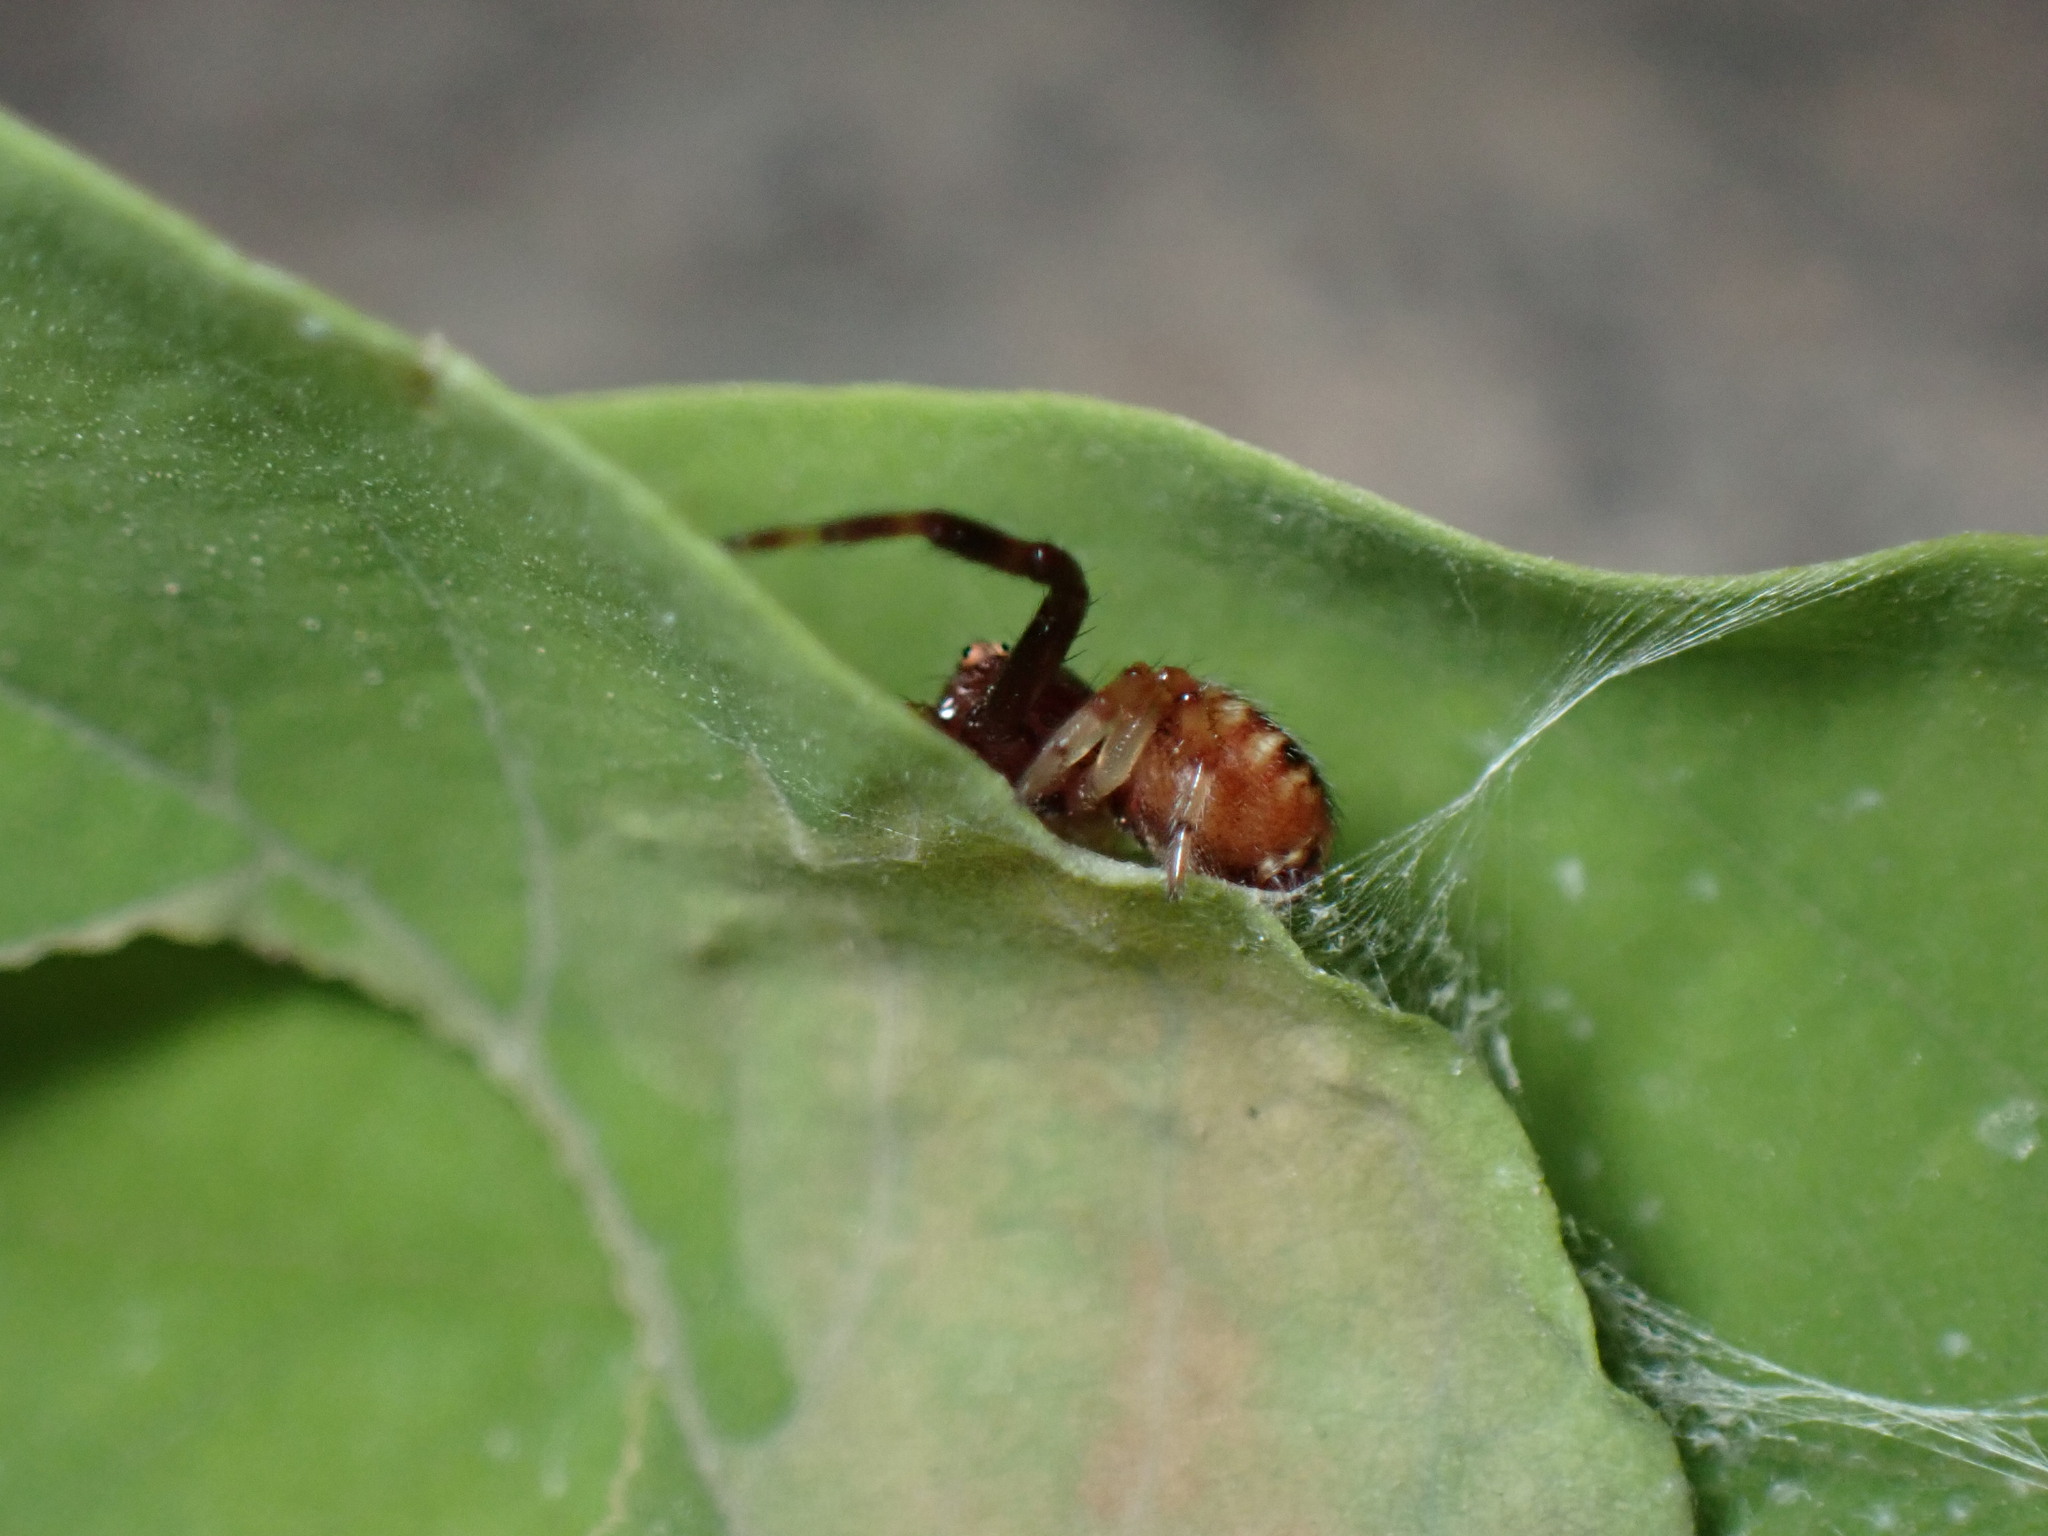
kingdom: Animalia
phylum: Arthropoda
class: Arachnida
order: Araneae
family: Thomisidae
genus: Synema
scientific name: Synema globosum
